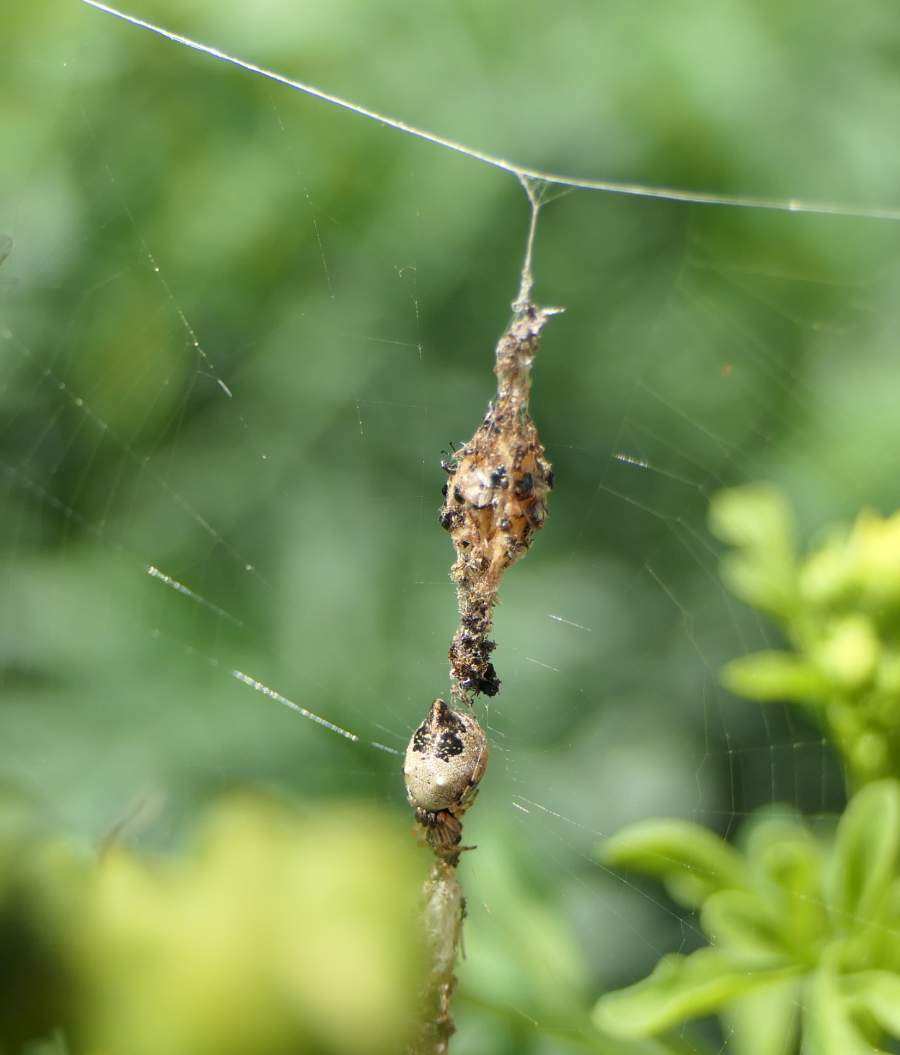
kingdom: Animalia
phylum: Arthropoda
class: Arachnida
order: Araneae
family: Araneidae
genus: Cyclosa
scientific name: Cyclosa turbinata
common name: Orb weavers
